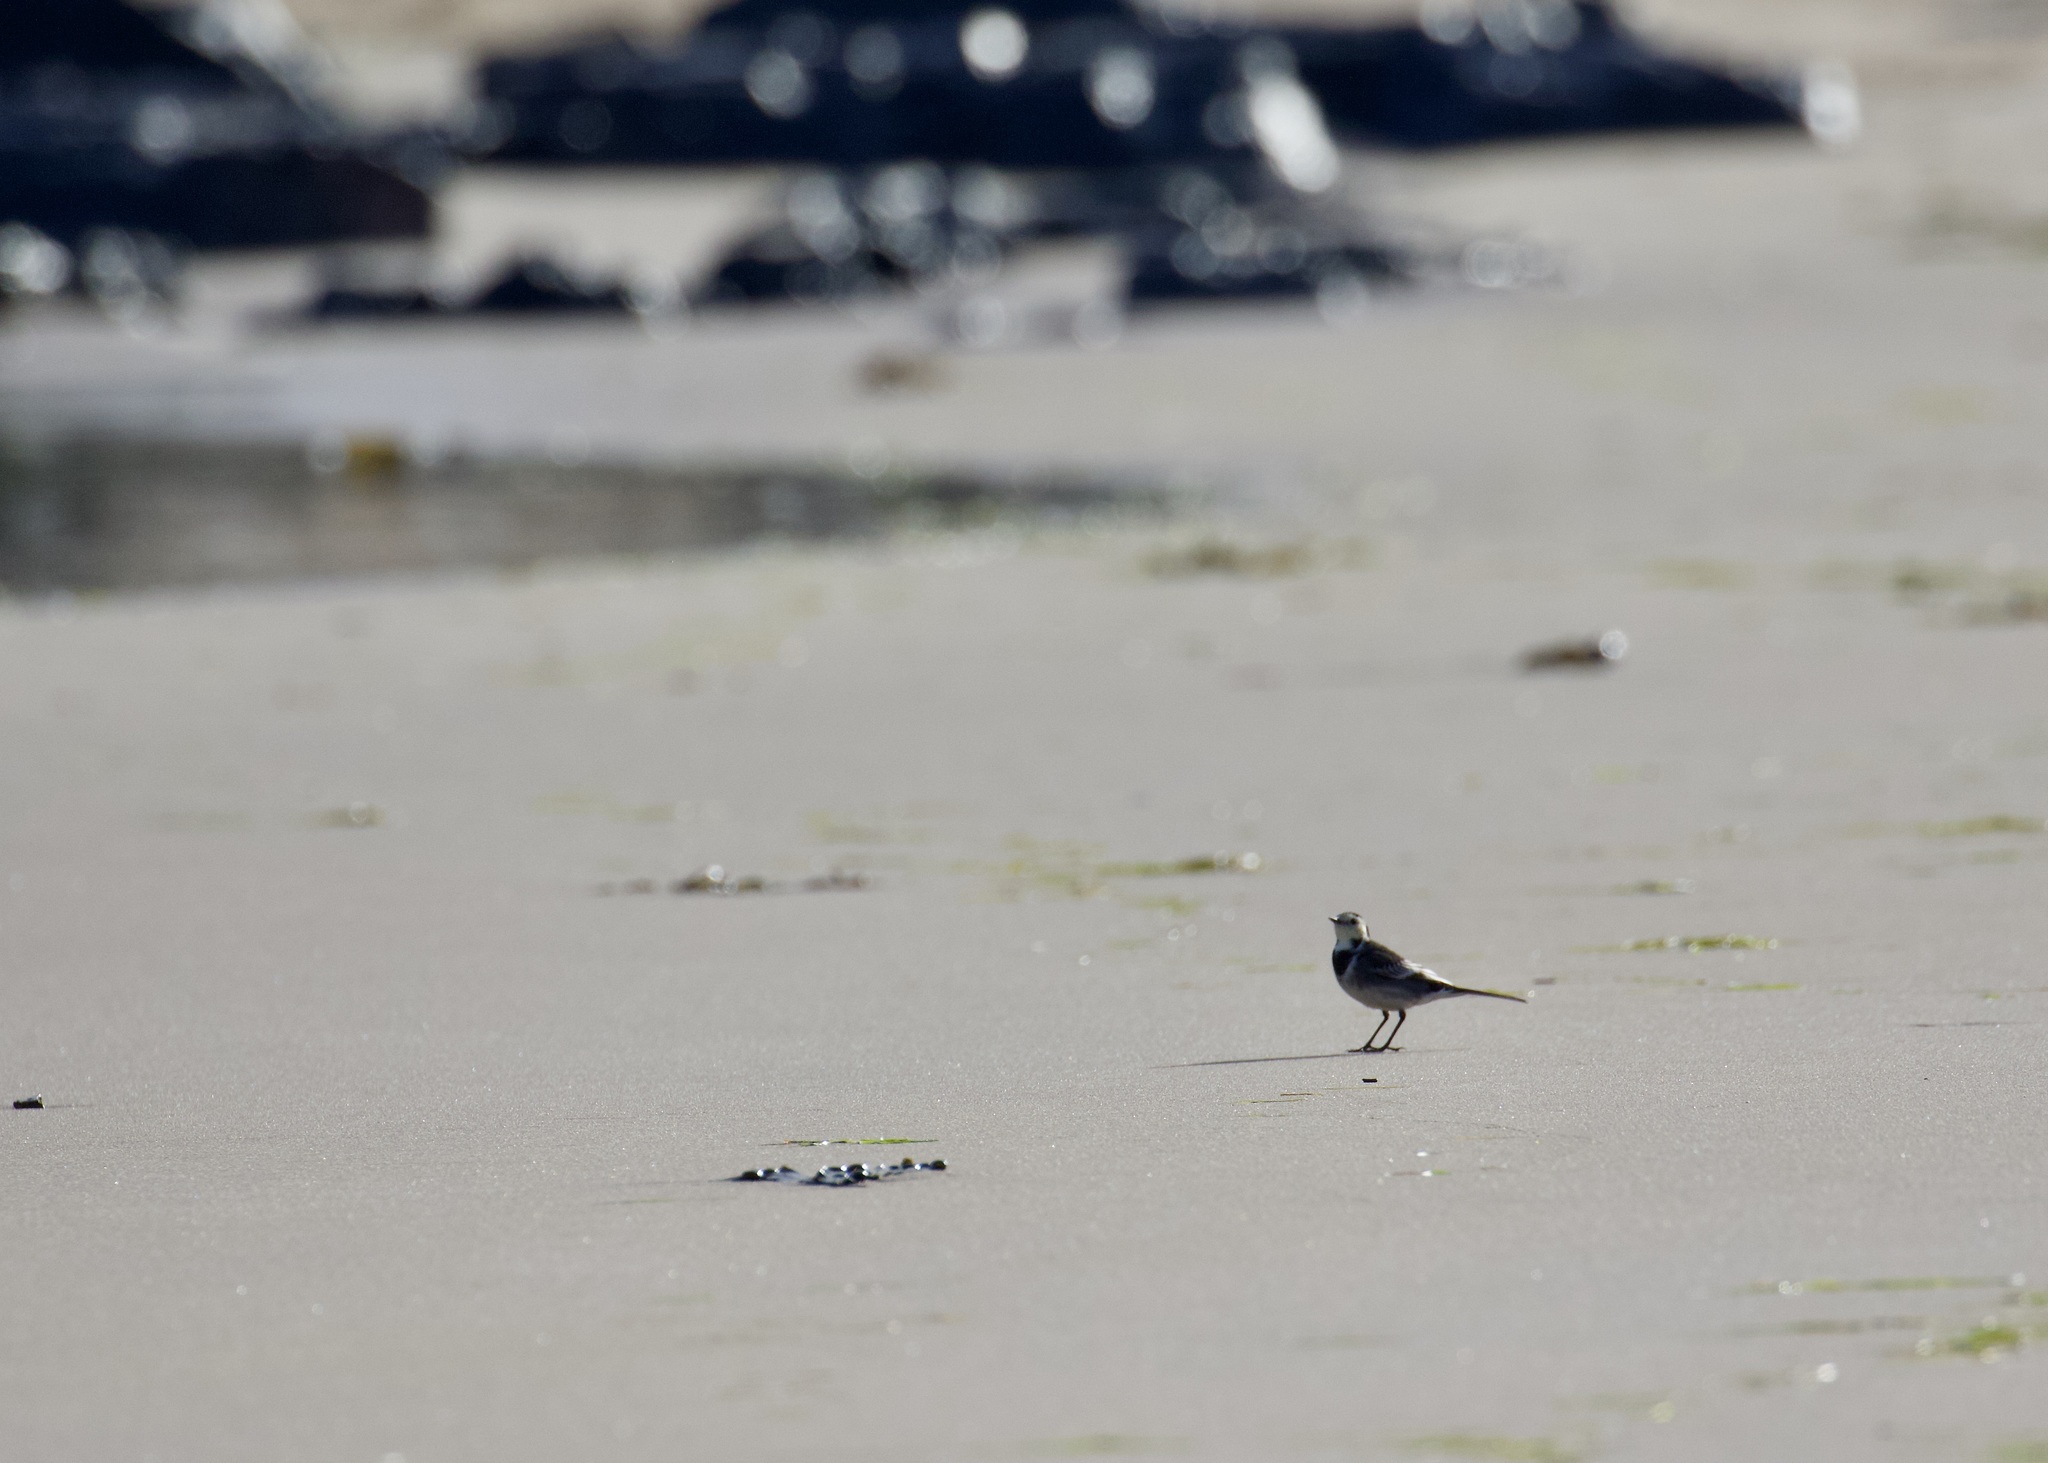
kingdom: Animalia
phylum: Chordata
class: Aves
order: Passeriformes
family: Motacillidae
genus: Motacilla
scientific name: Motacilla alba
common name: White wagtail
